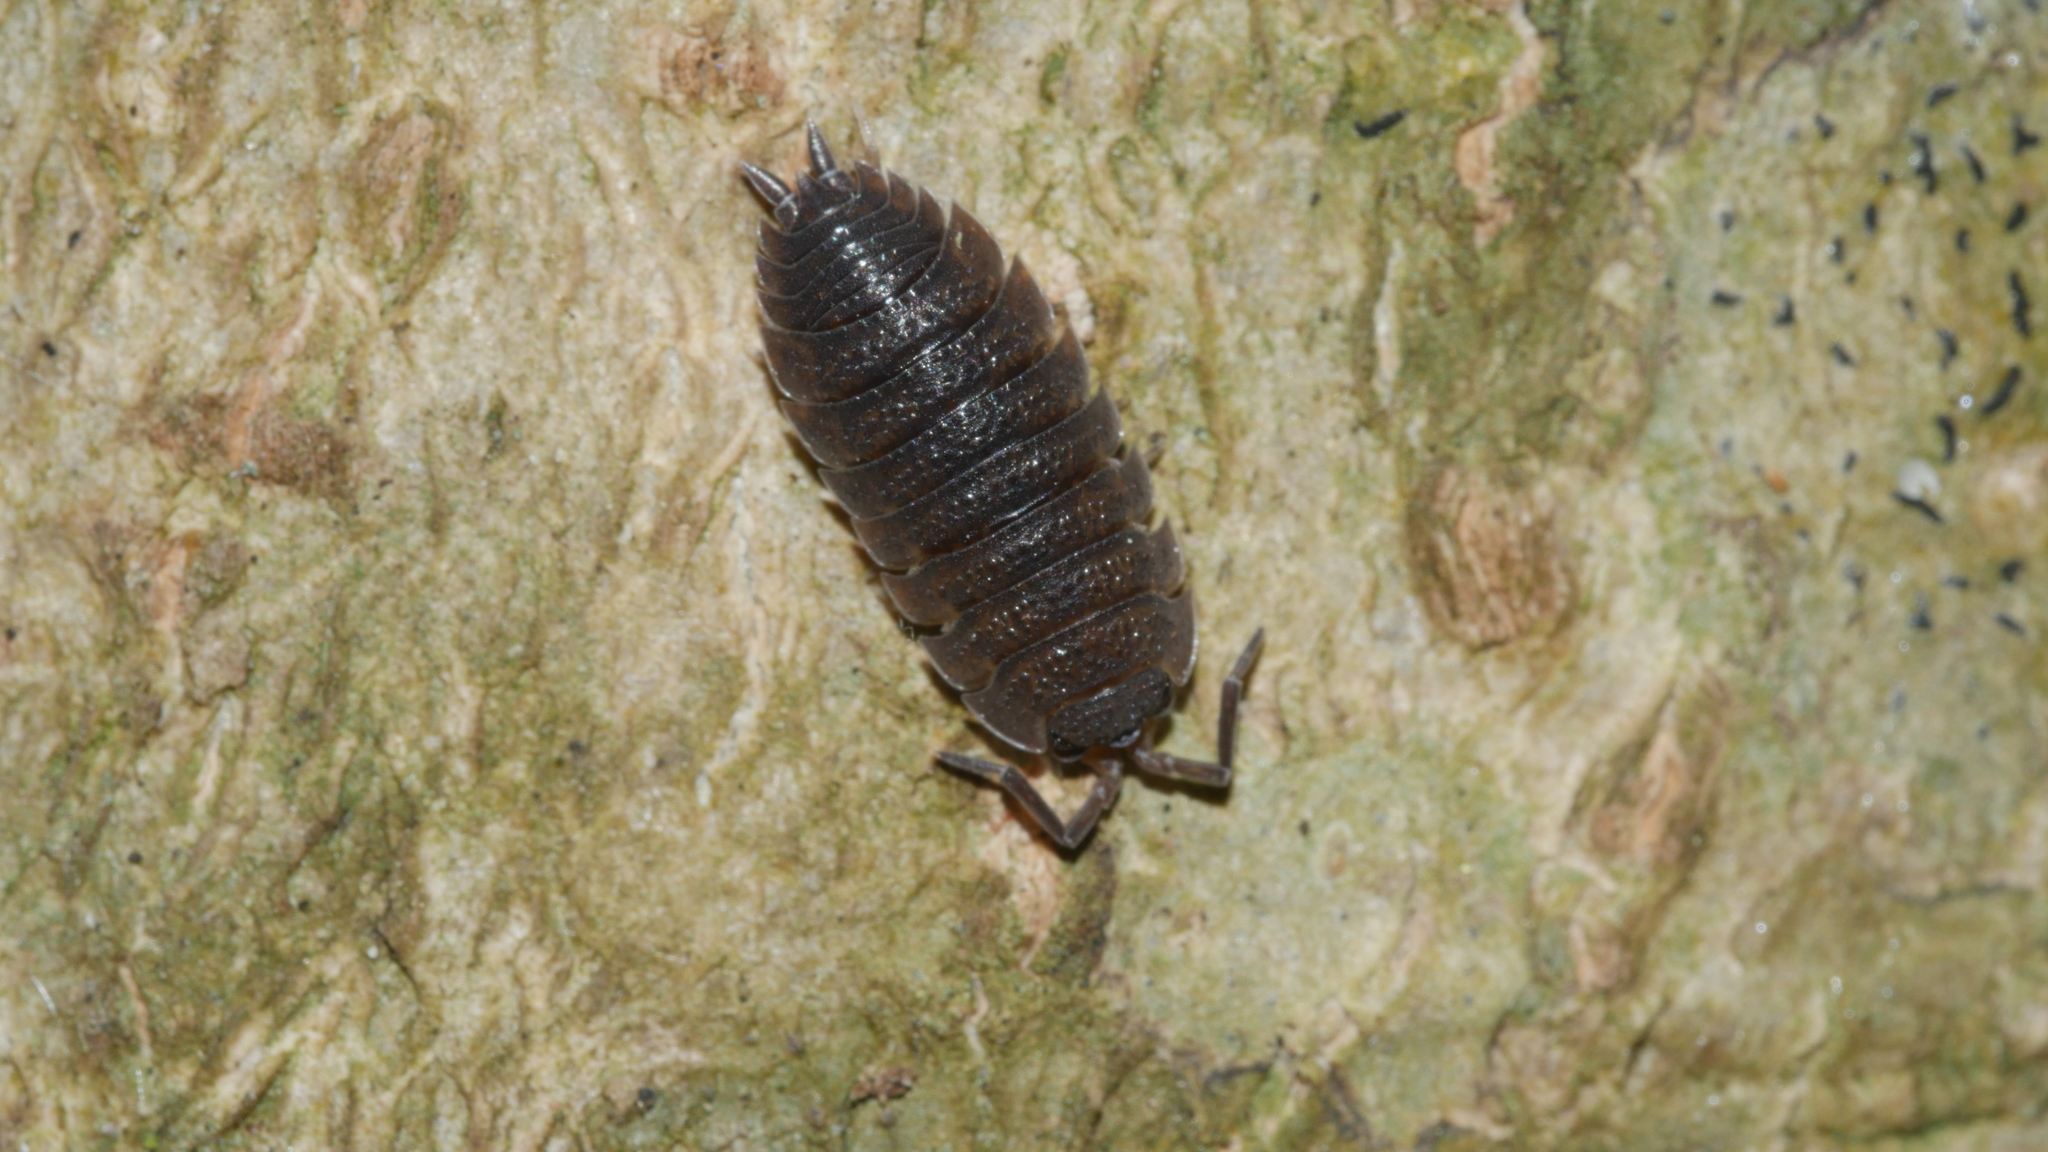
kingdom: Animalia
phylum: Arthropoda
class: Malacostraca
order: Isopoda
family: Porcellionidae
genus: Porcellio
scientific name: Porcellio scaber
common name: Common rough woodlouse
